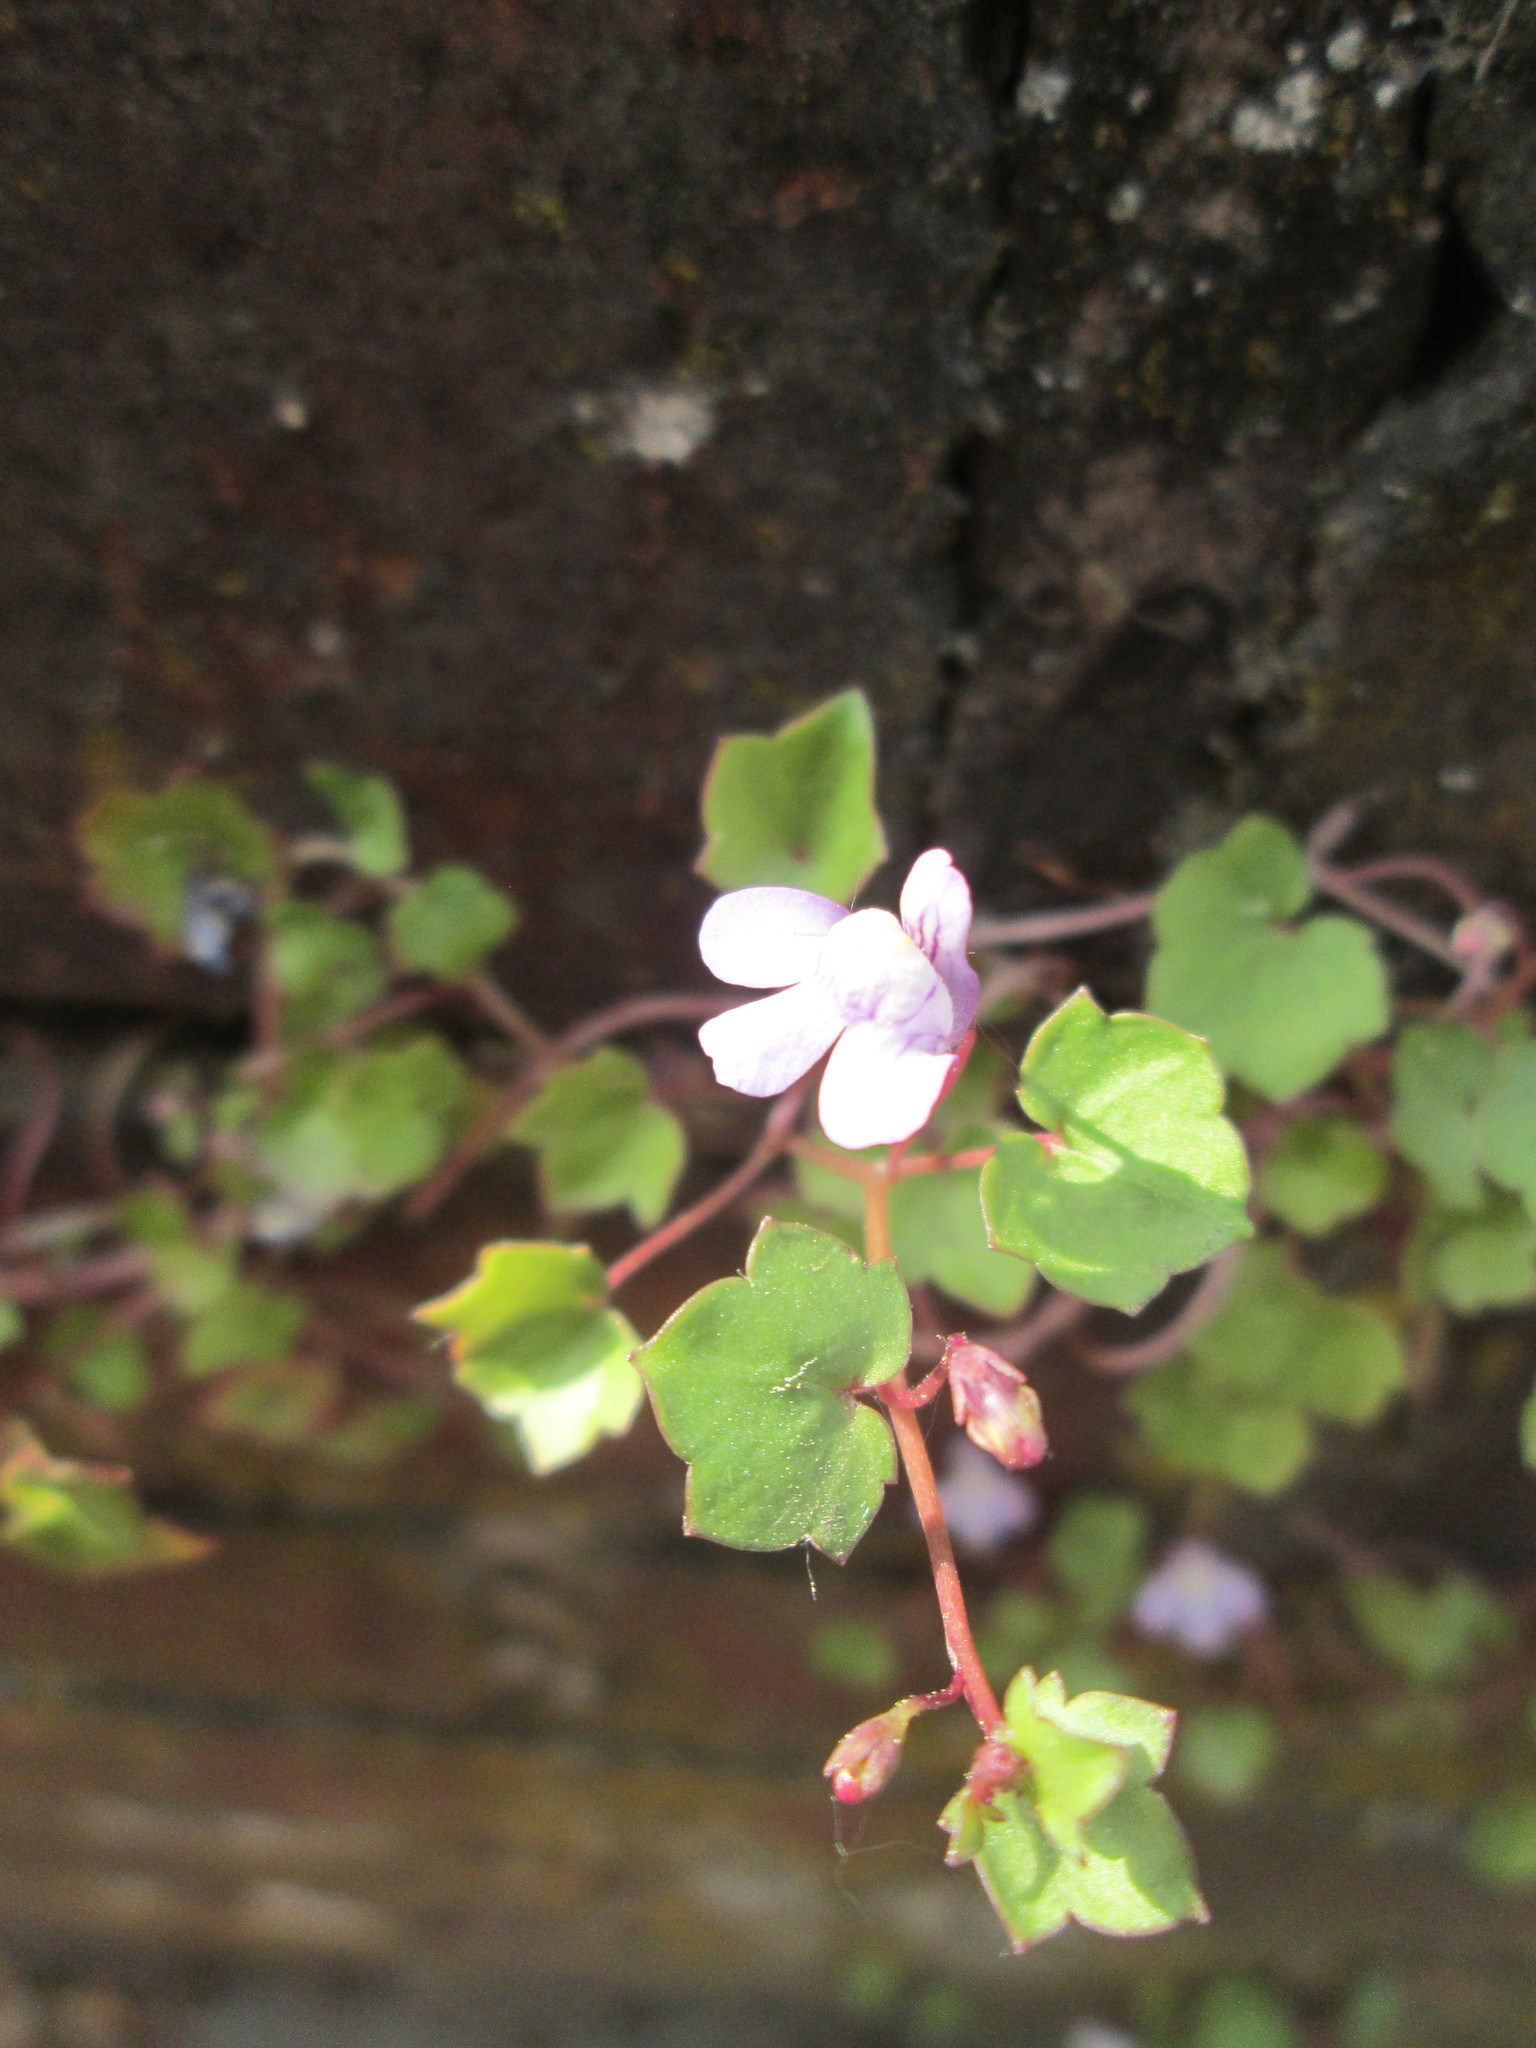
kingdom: Plantae
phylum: Tracheophyta
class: Magnoliopsida
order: Lamiales
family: Plantaginaceae
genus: Cymbalaria
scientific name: Cymbalaria muralis
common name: Ivy-leaved toadflax
